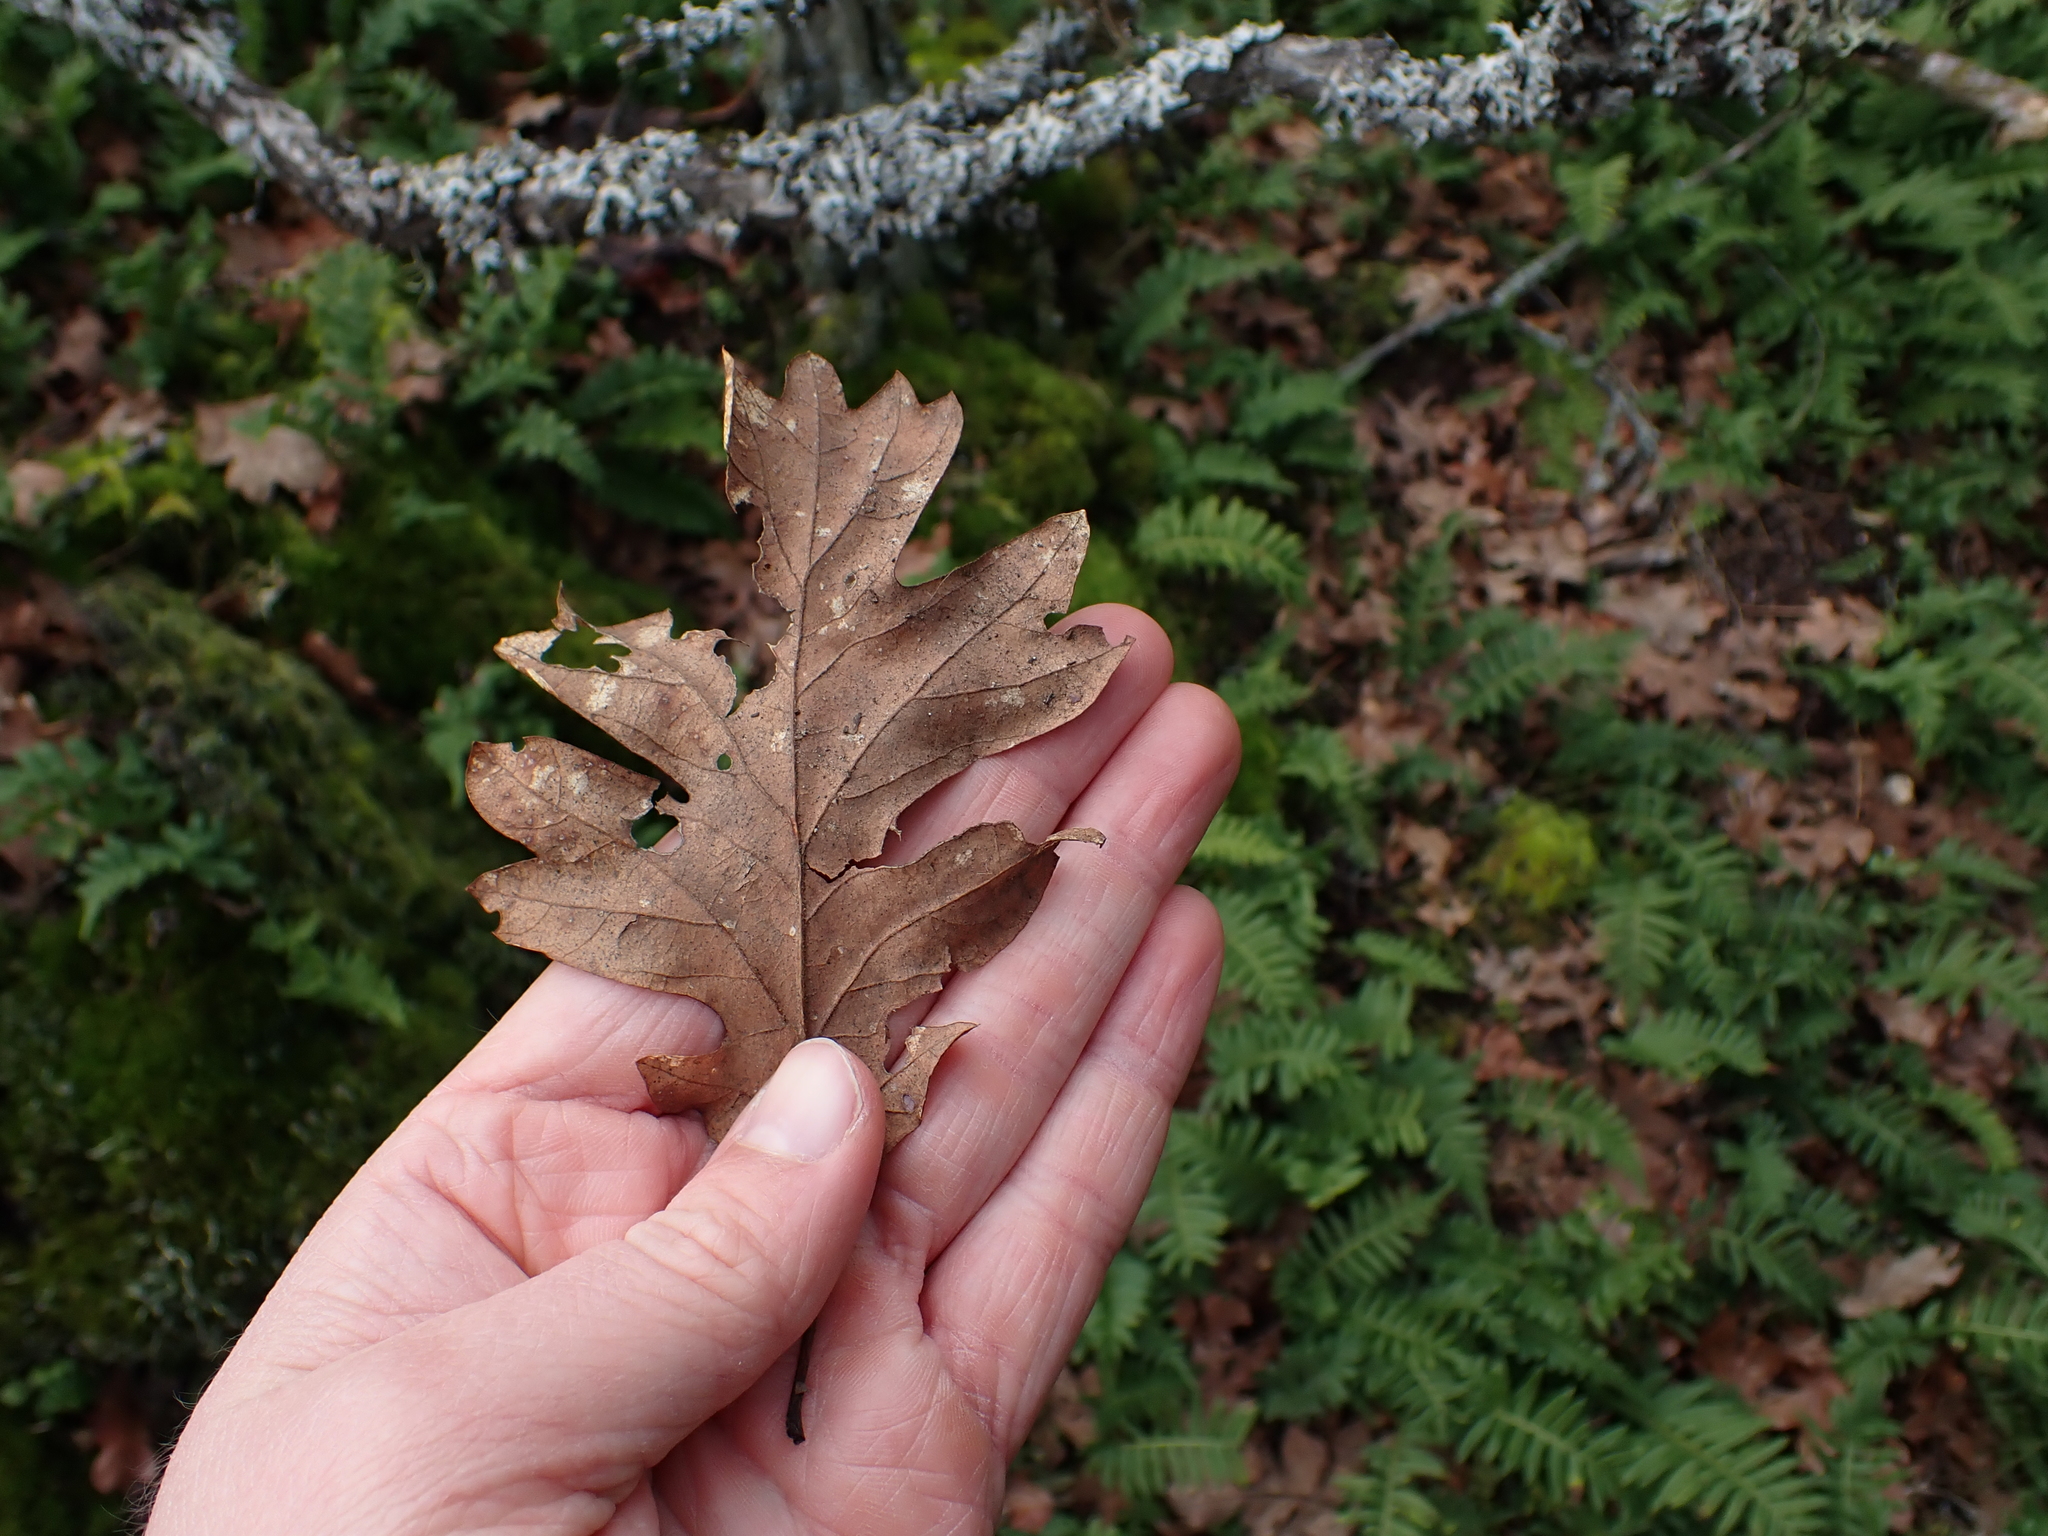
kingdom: Plantae
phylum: Tracheophyta
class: Magnoliopsida
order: Fagales
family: Fagaceae
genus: Quercus
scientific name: Quercus garryana
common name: Garry oak
